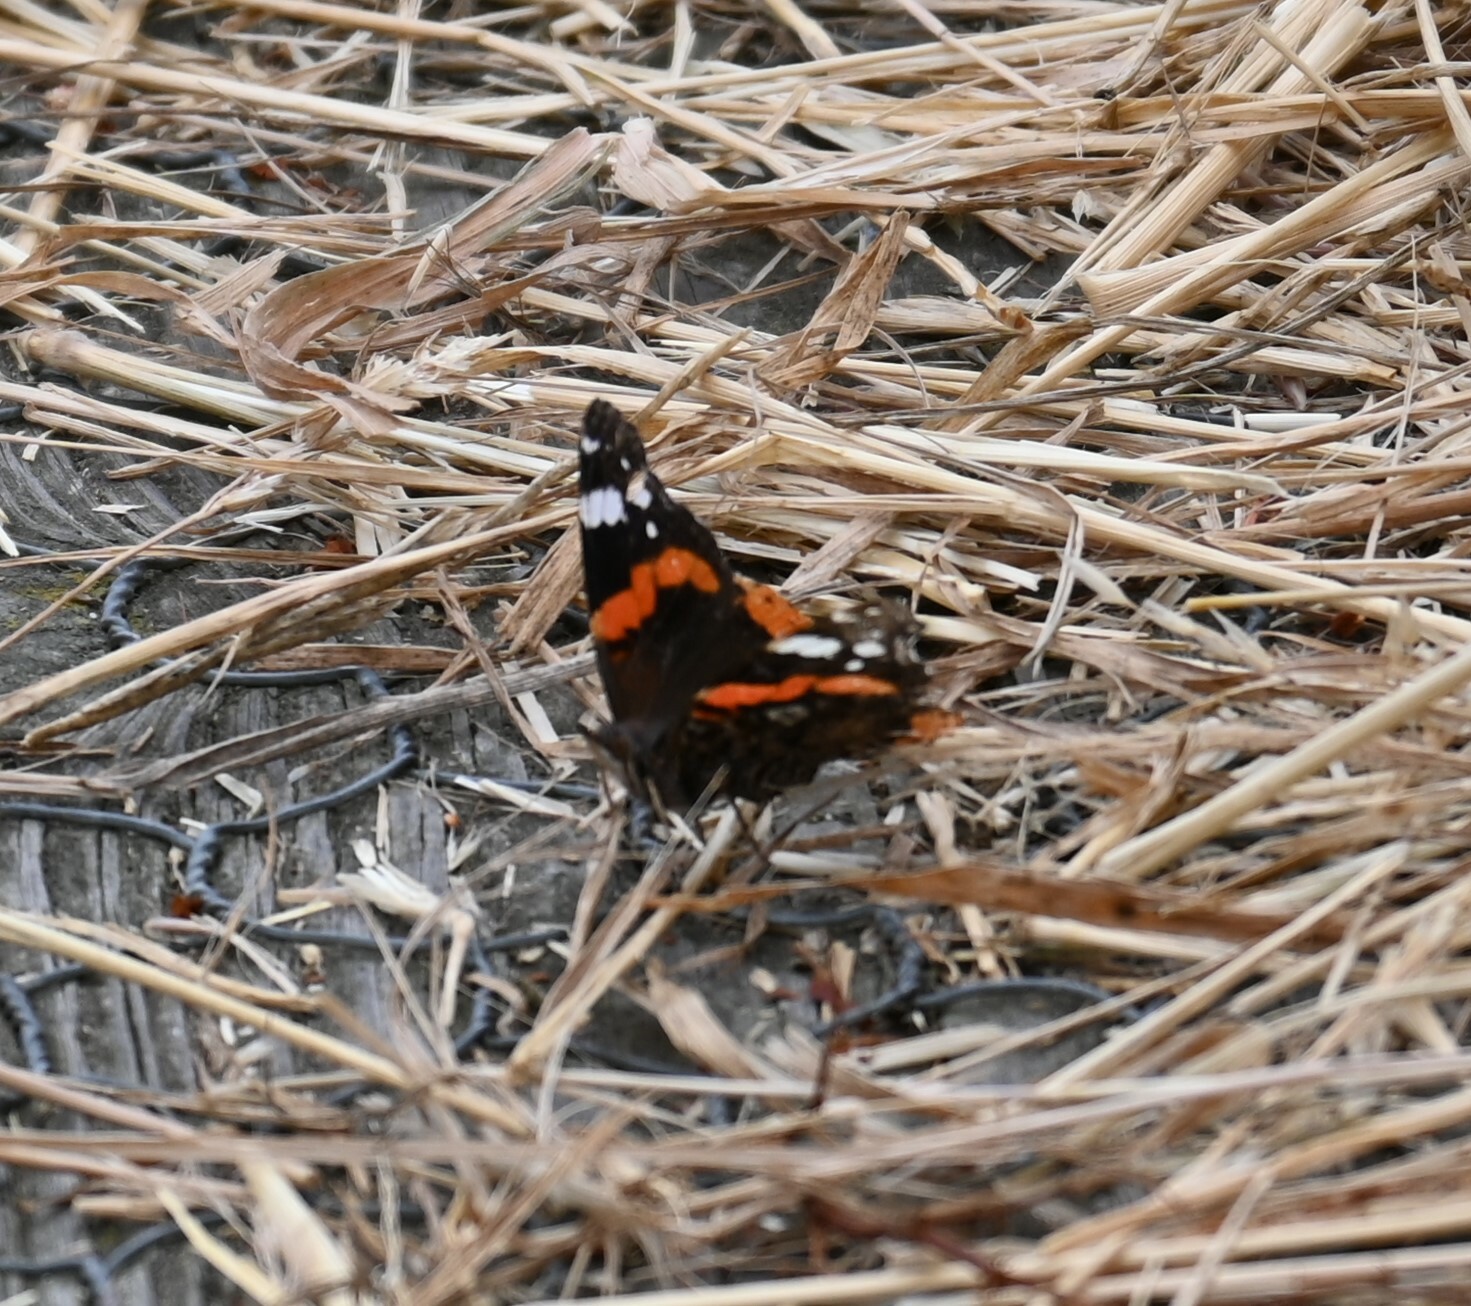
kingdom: Animalia
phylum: Arthropoda
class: Insecta
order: Lepidoptera
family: Nymphalidae
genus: Vanessa
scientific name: Vanessa atalanta
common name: Red admiral
